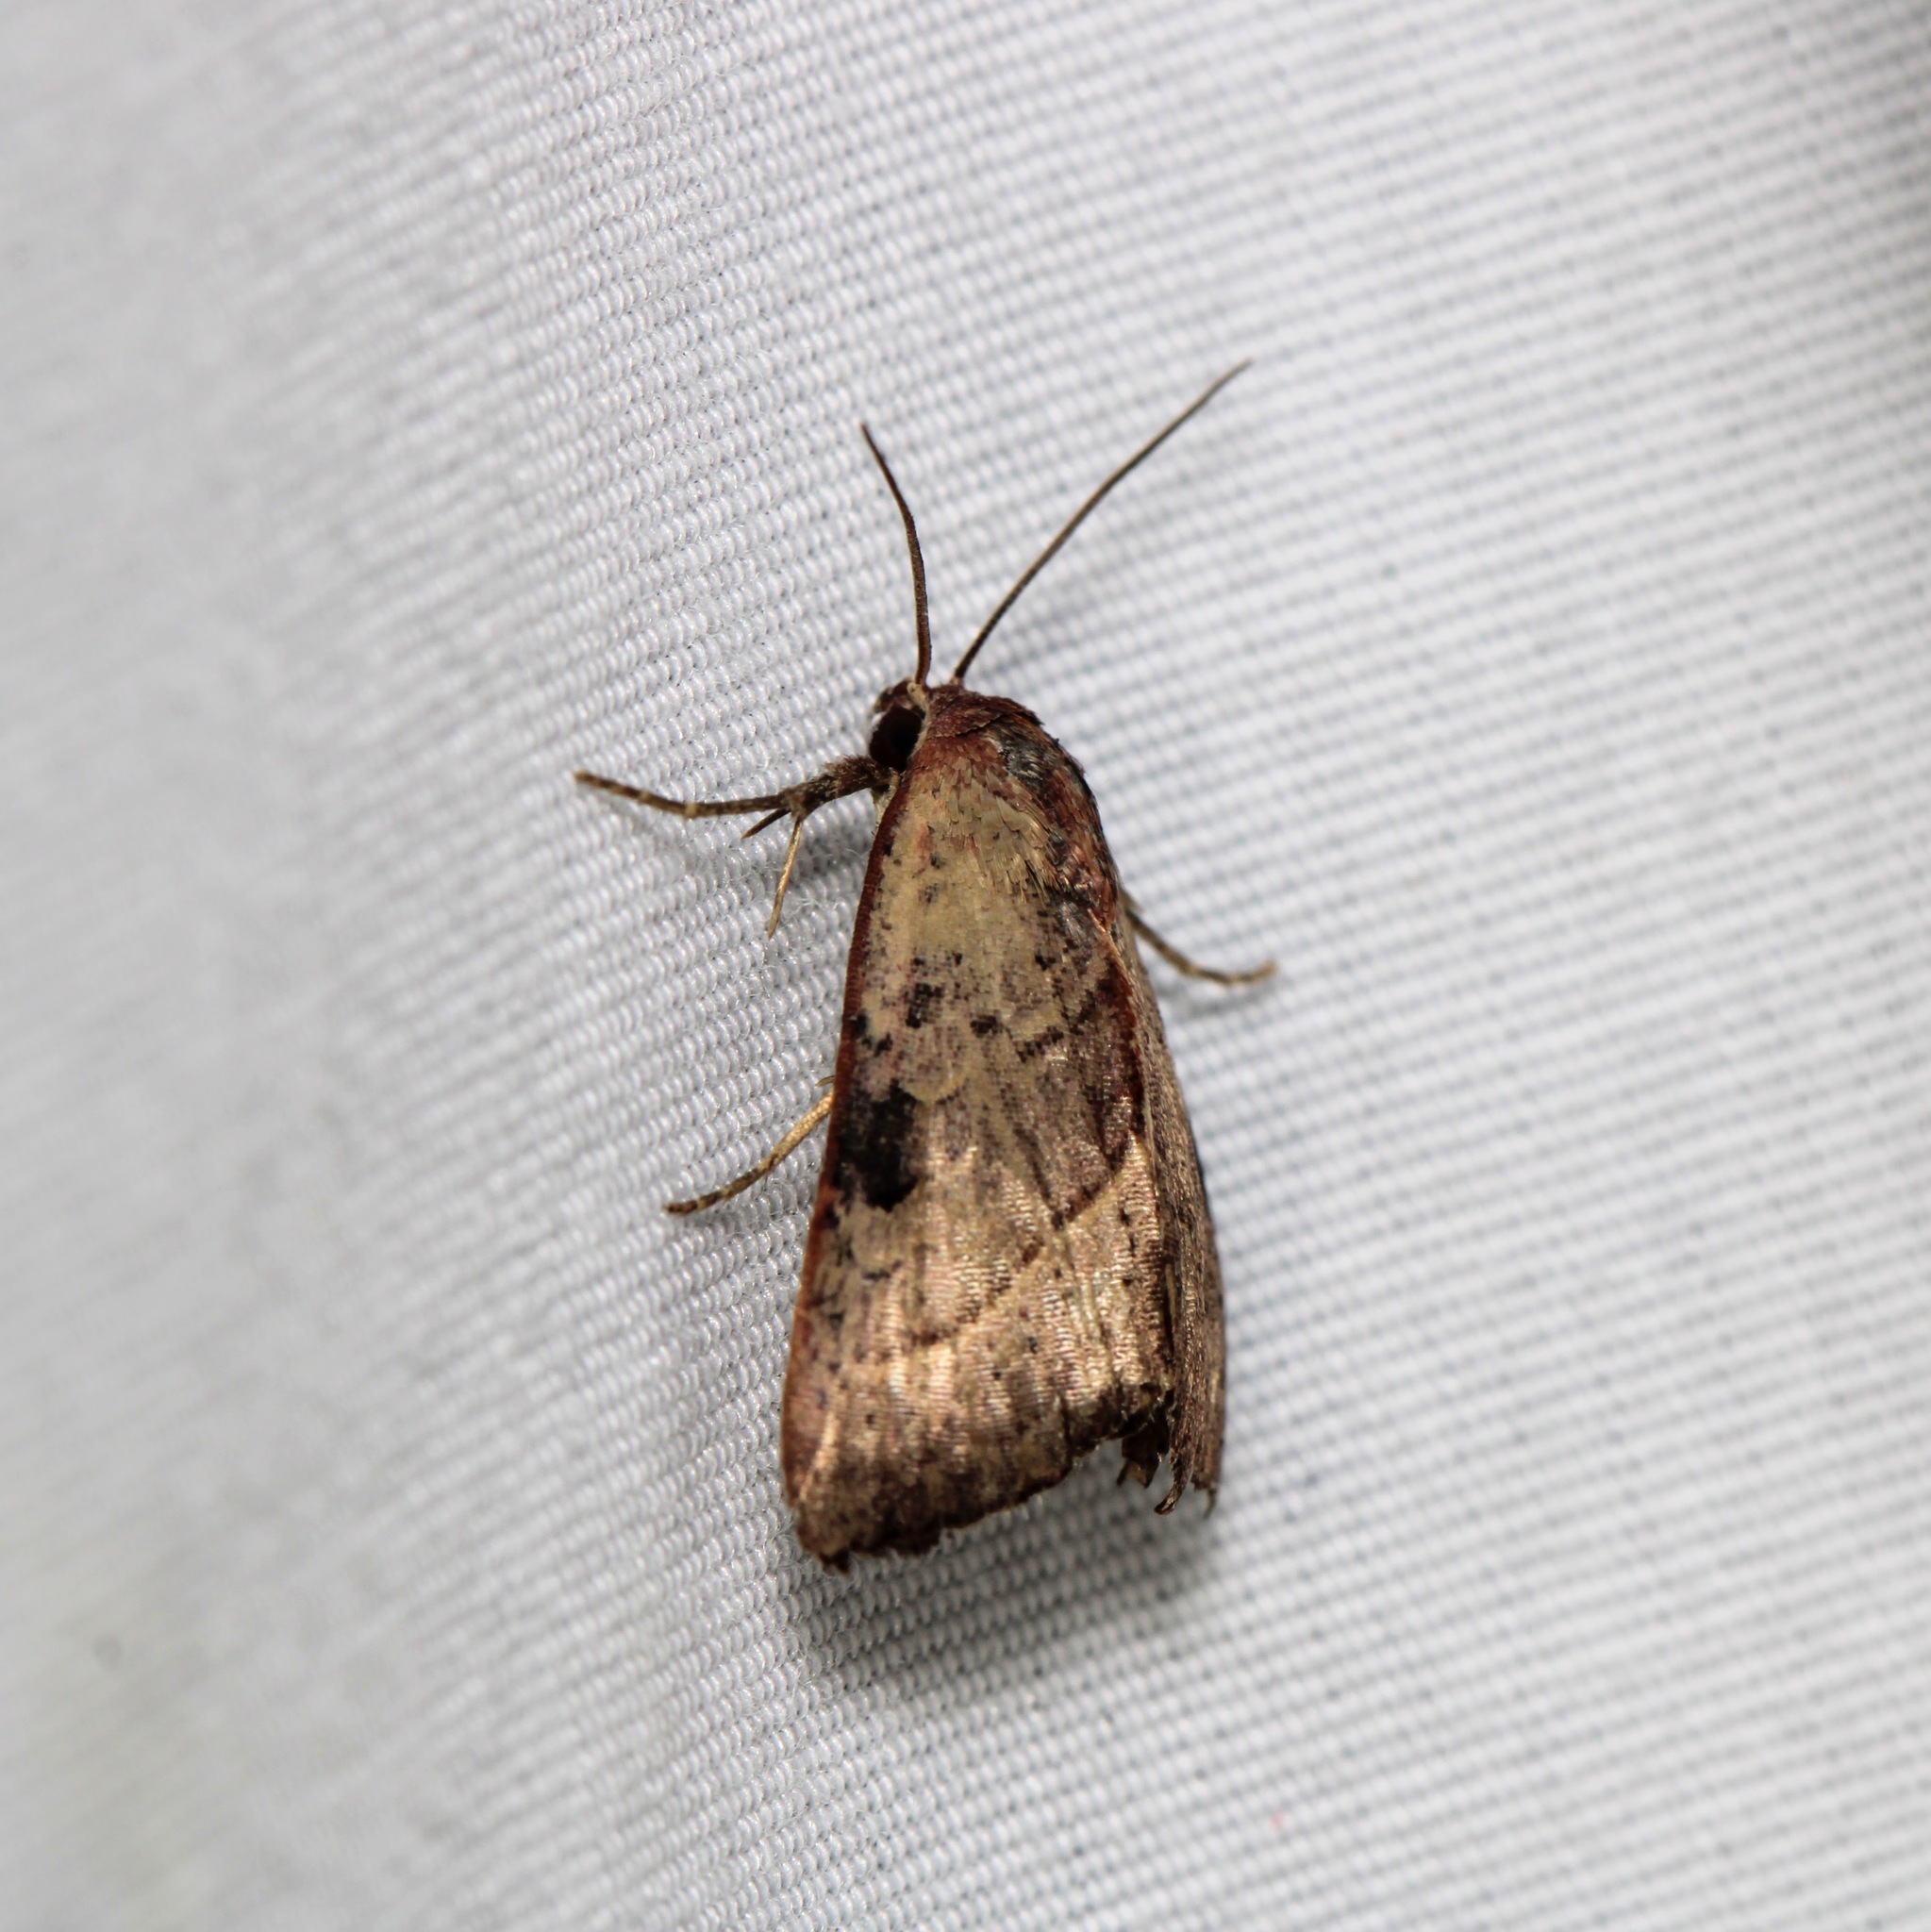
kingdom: Animalia
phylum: Arthropoda
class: Insecta
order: Lepidoptera
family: Noctuidae
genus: Galgula
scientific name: Galgula partita
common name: Wedgeling
